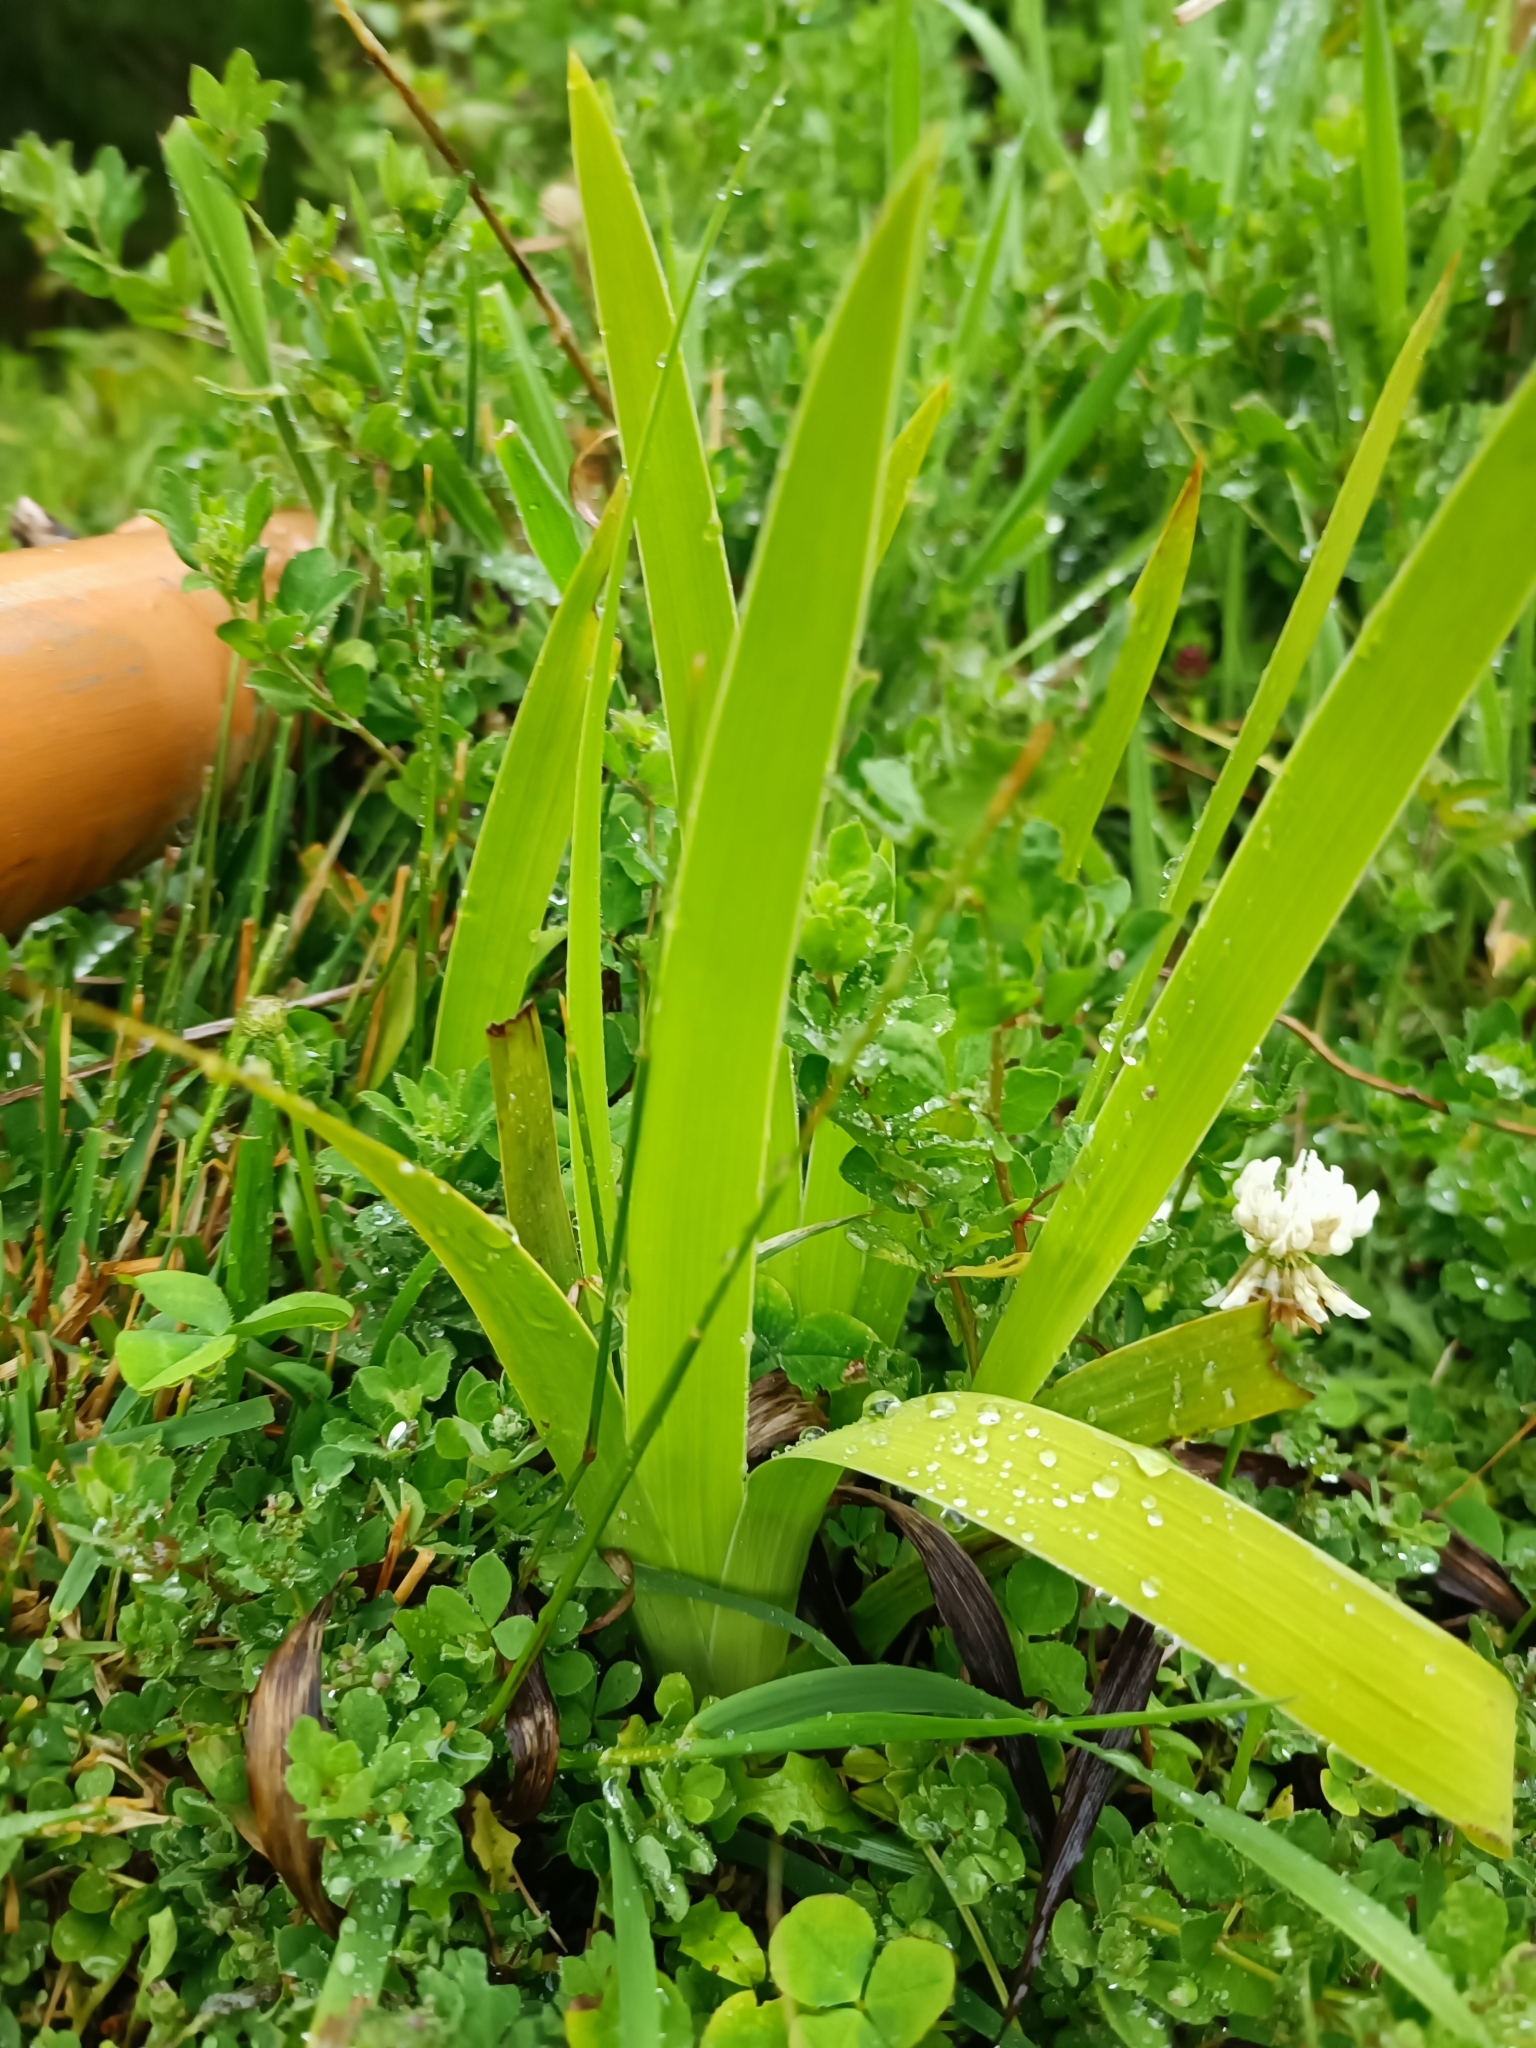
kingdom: Plantae
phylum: Tracheophyta
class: Liliopsida
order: Asparagales
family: Iridaceae
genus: Aristea
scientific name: Aristea ecklonii
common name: Blue corn-lily
